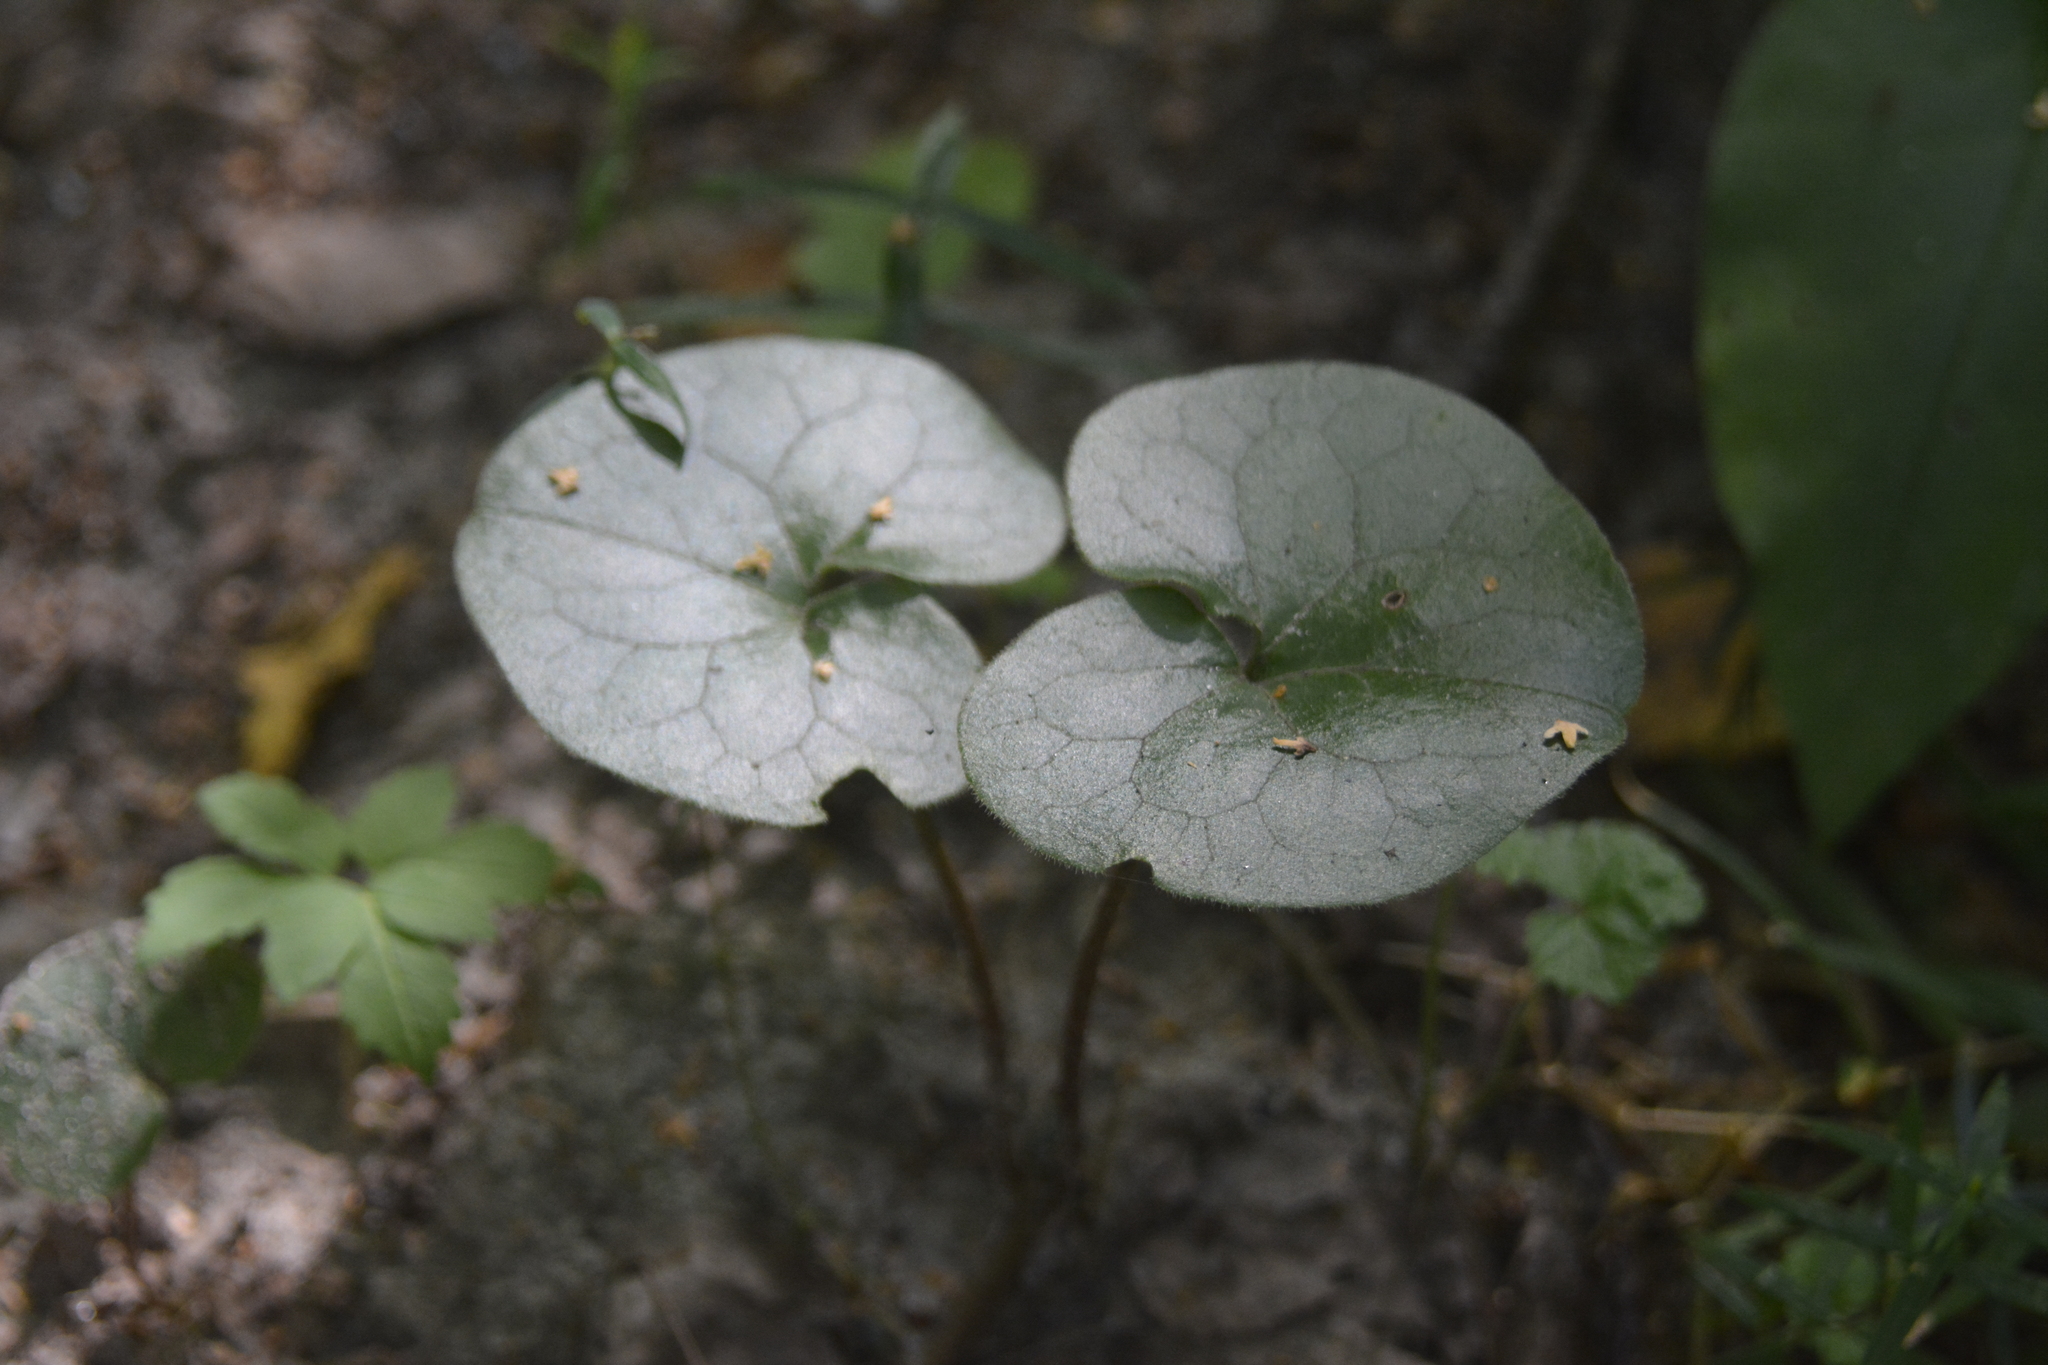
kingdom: Plantae
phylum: Tracheophyta
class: Magnoliopsida
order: Piperales
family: Aristolochiaceae
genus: Asarum
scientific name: Asarum europaeum
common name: Asarabacca
